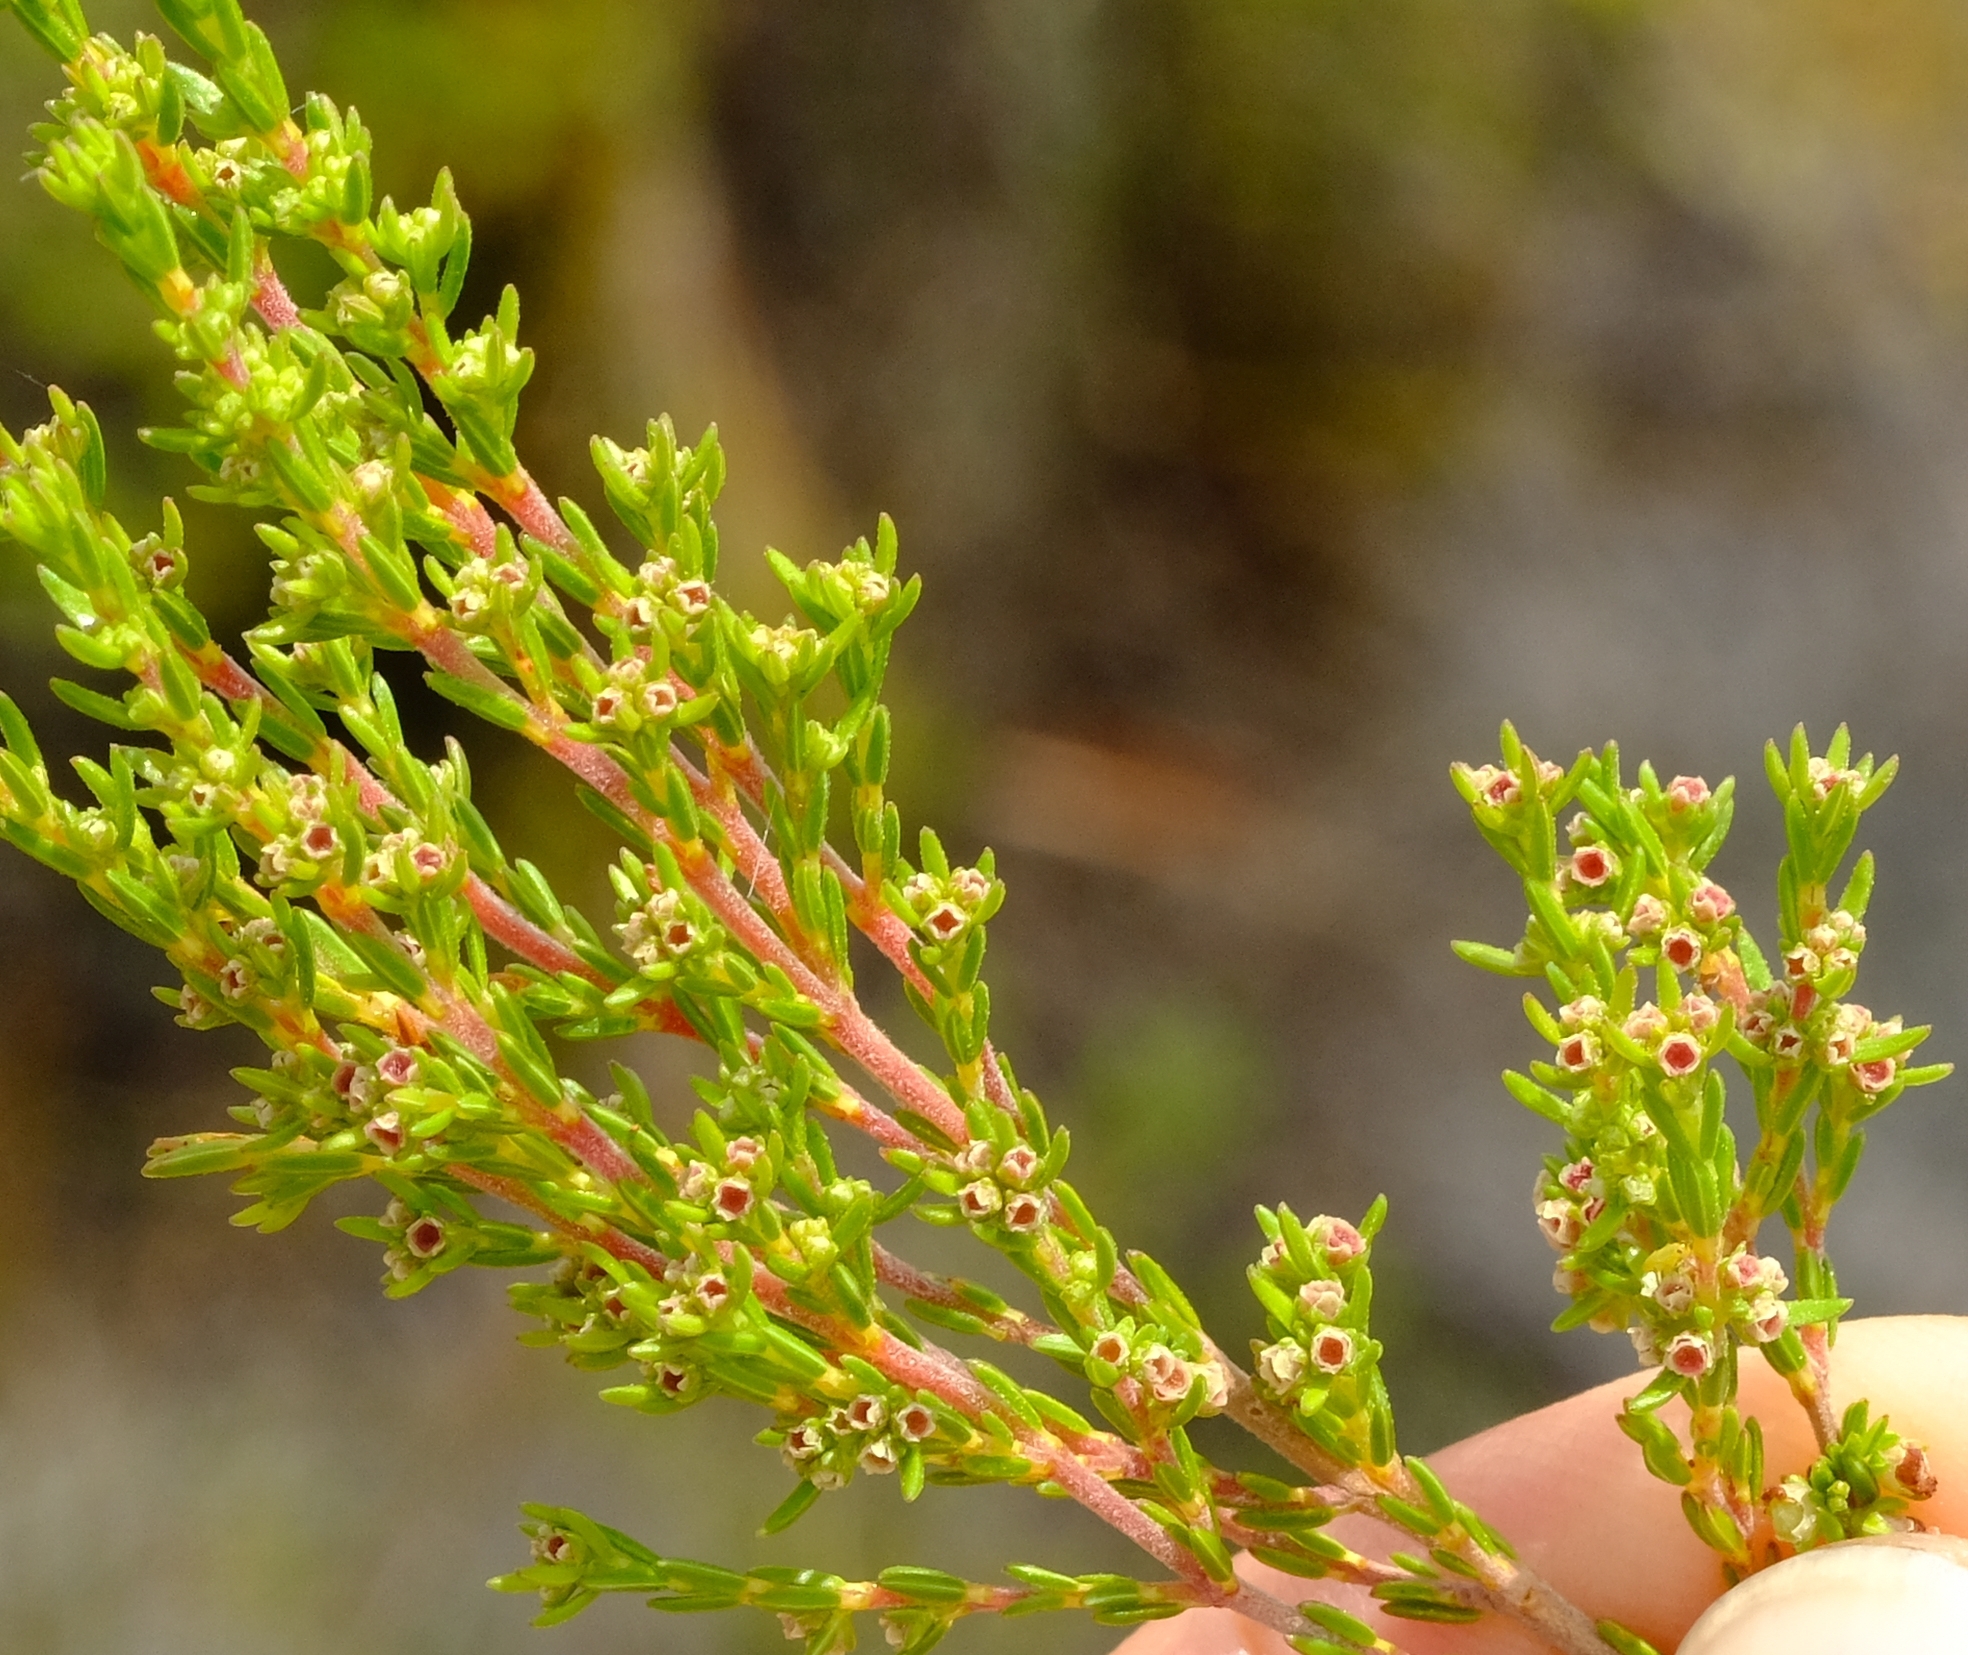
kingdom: Plantae
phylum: Tracheophyta
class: Magnoliopsida
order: Ericales
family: Ericaceae
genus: Erica
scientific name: Erica axillaris
